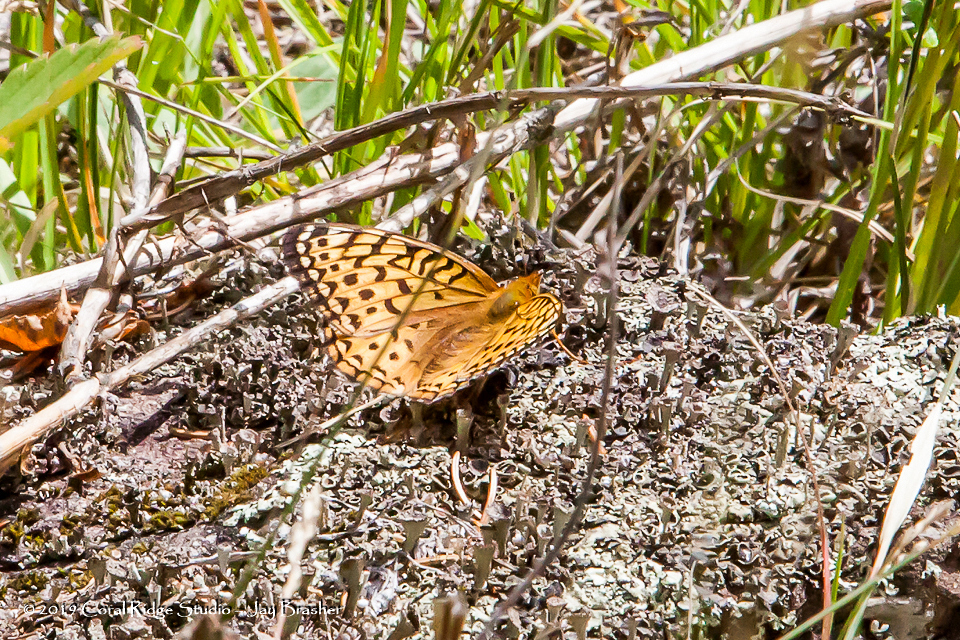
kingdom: Animalia
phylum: Arthropoda
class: Insecta
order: Lepidoptera
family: Nymphalidae
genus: Speyeria
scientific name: Speyeria aphrodite
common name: Aphrodite friitllary
